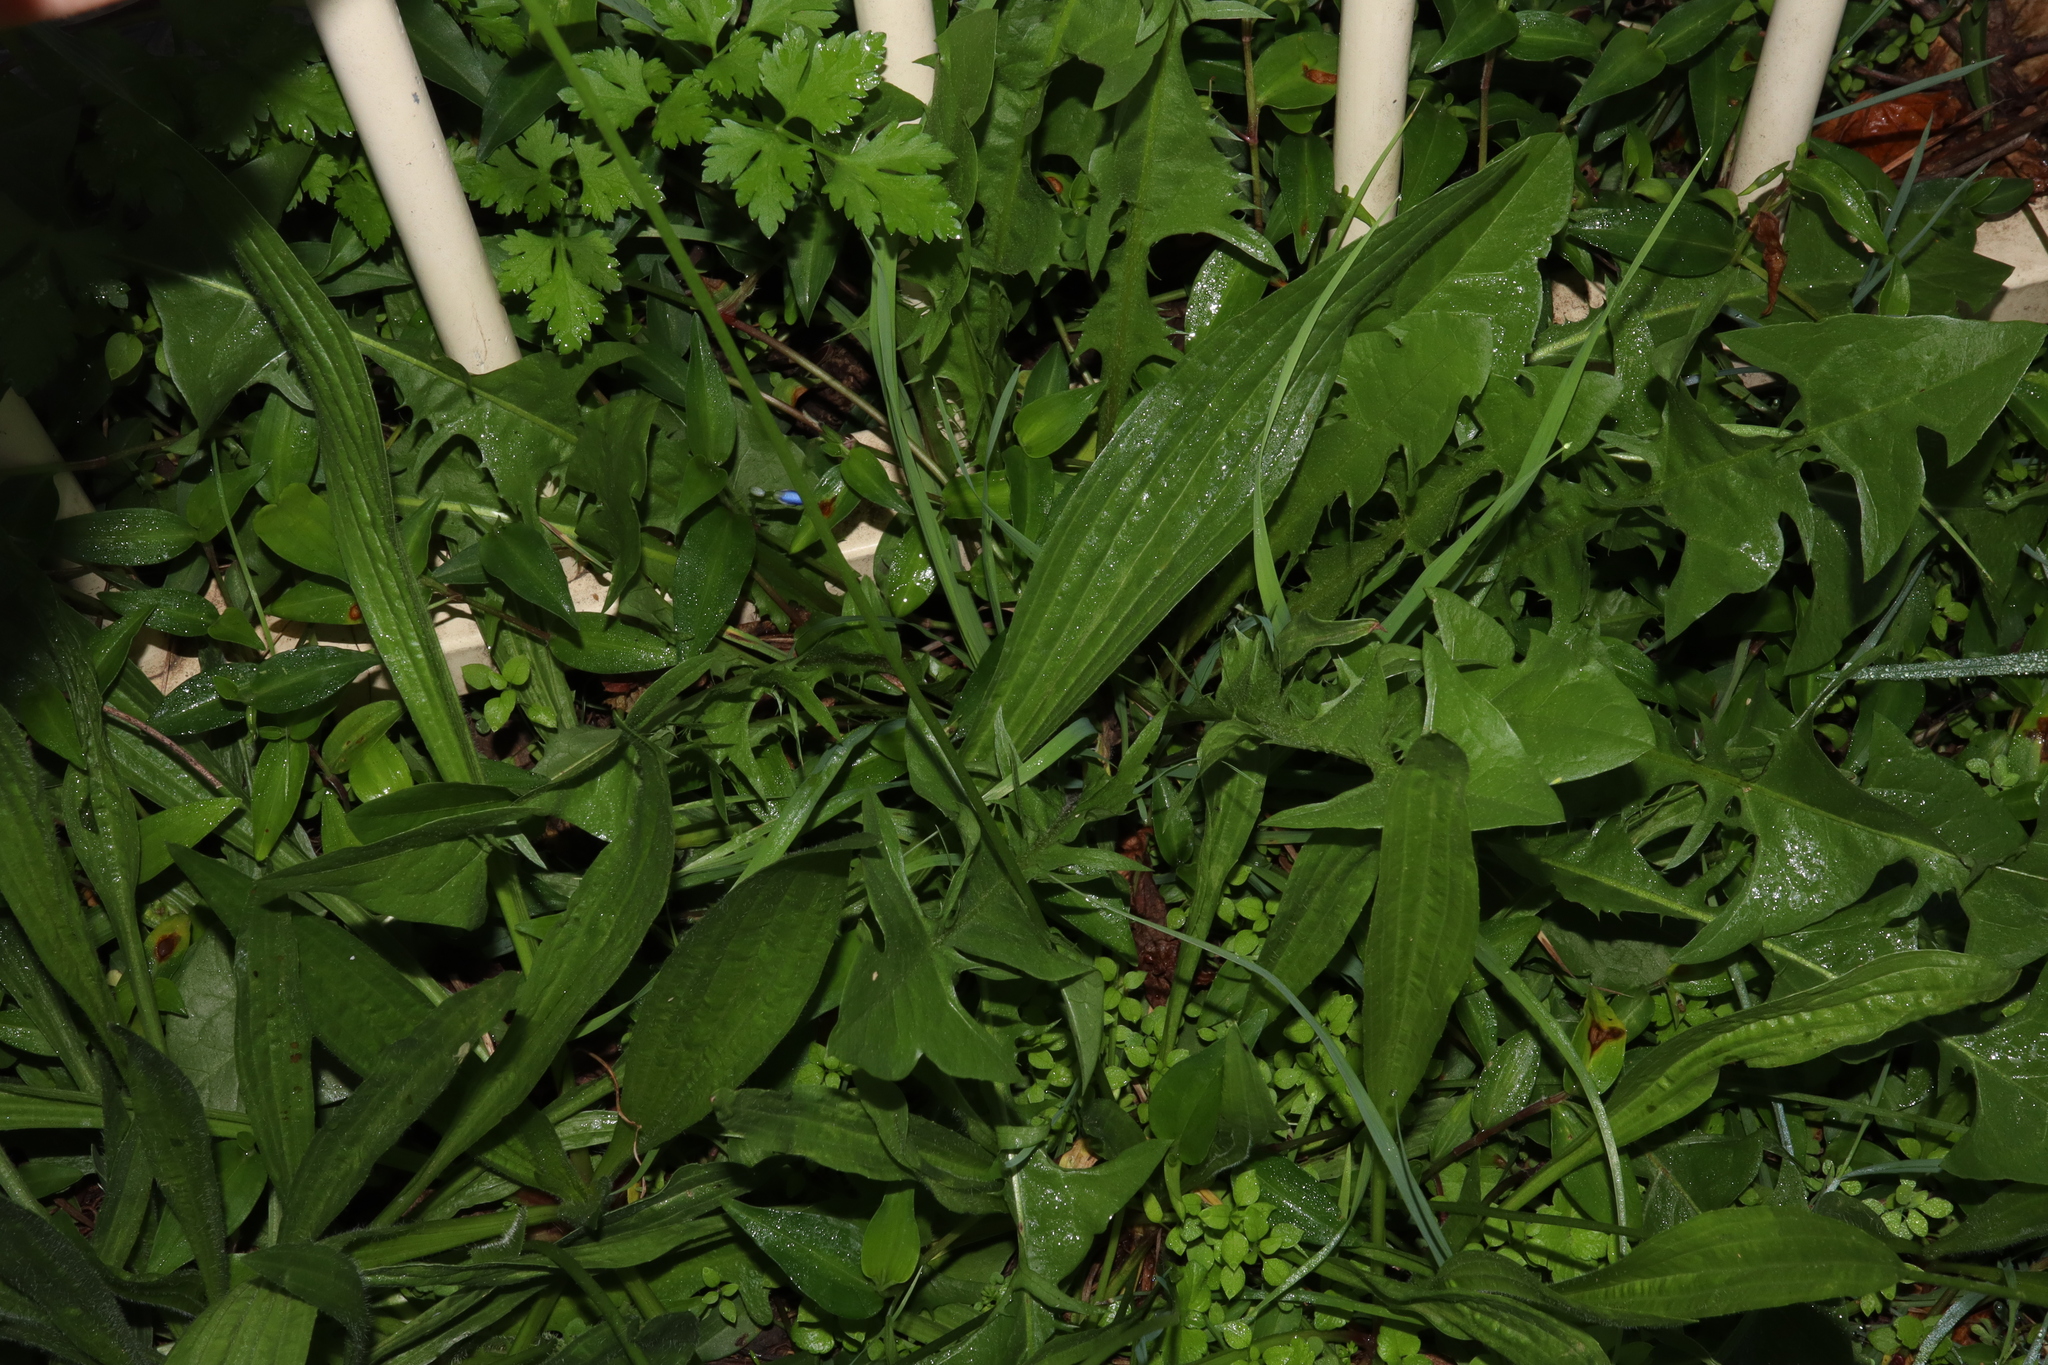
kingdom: Plantae
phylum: Tracheophyta
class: Magnoliopsida
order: Lamiales
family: Plantaginaceae
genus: Plantago
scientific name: Plantago lanceolata
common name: Ribwort plantain
